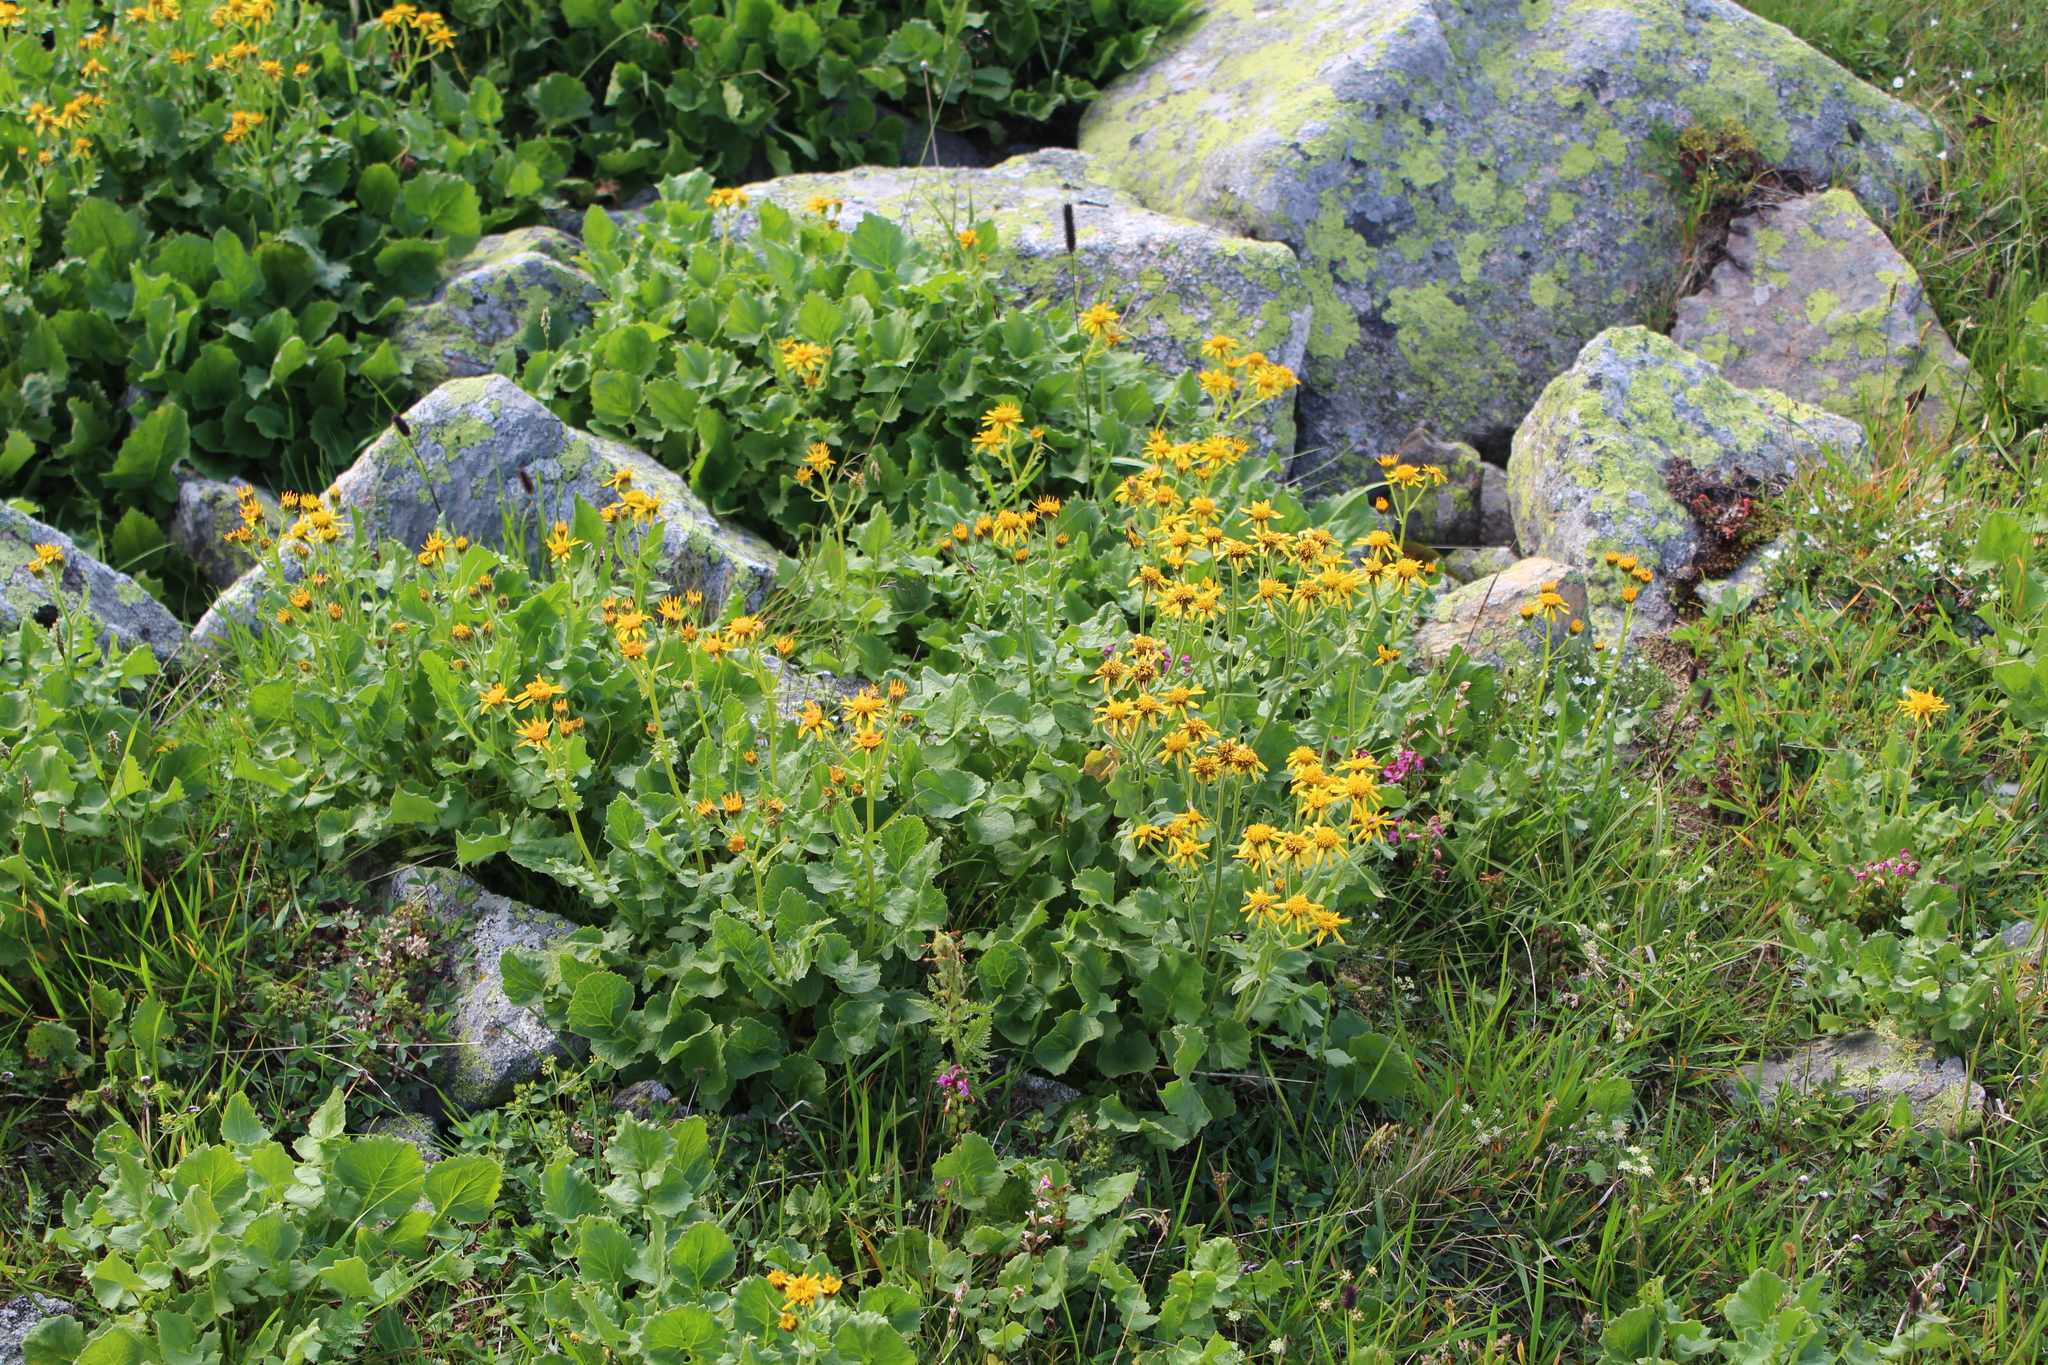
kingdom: Plantae
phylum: Tracheophyta
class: Magnoliopsida
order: Asterales
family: Asteraceae
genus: Turanecio
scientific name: Turanecio taraxacifolius
